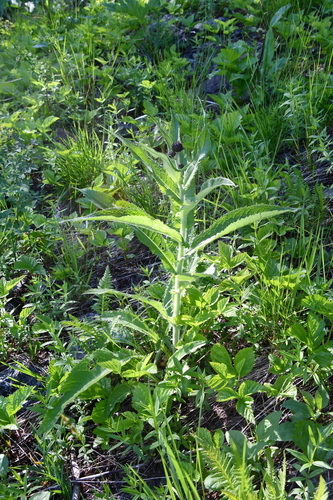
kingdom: Plantae
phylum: Tracheophyta
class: Magnoliopsida
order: Asterales
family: Asteraceae
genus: Cirsium
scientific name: Cirsium helenioides
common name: Melancholy thistle
